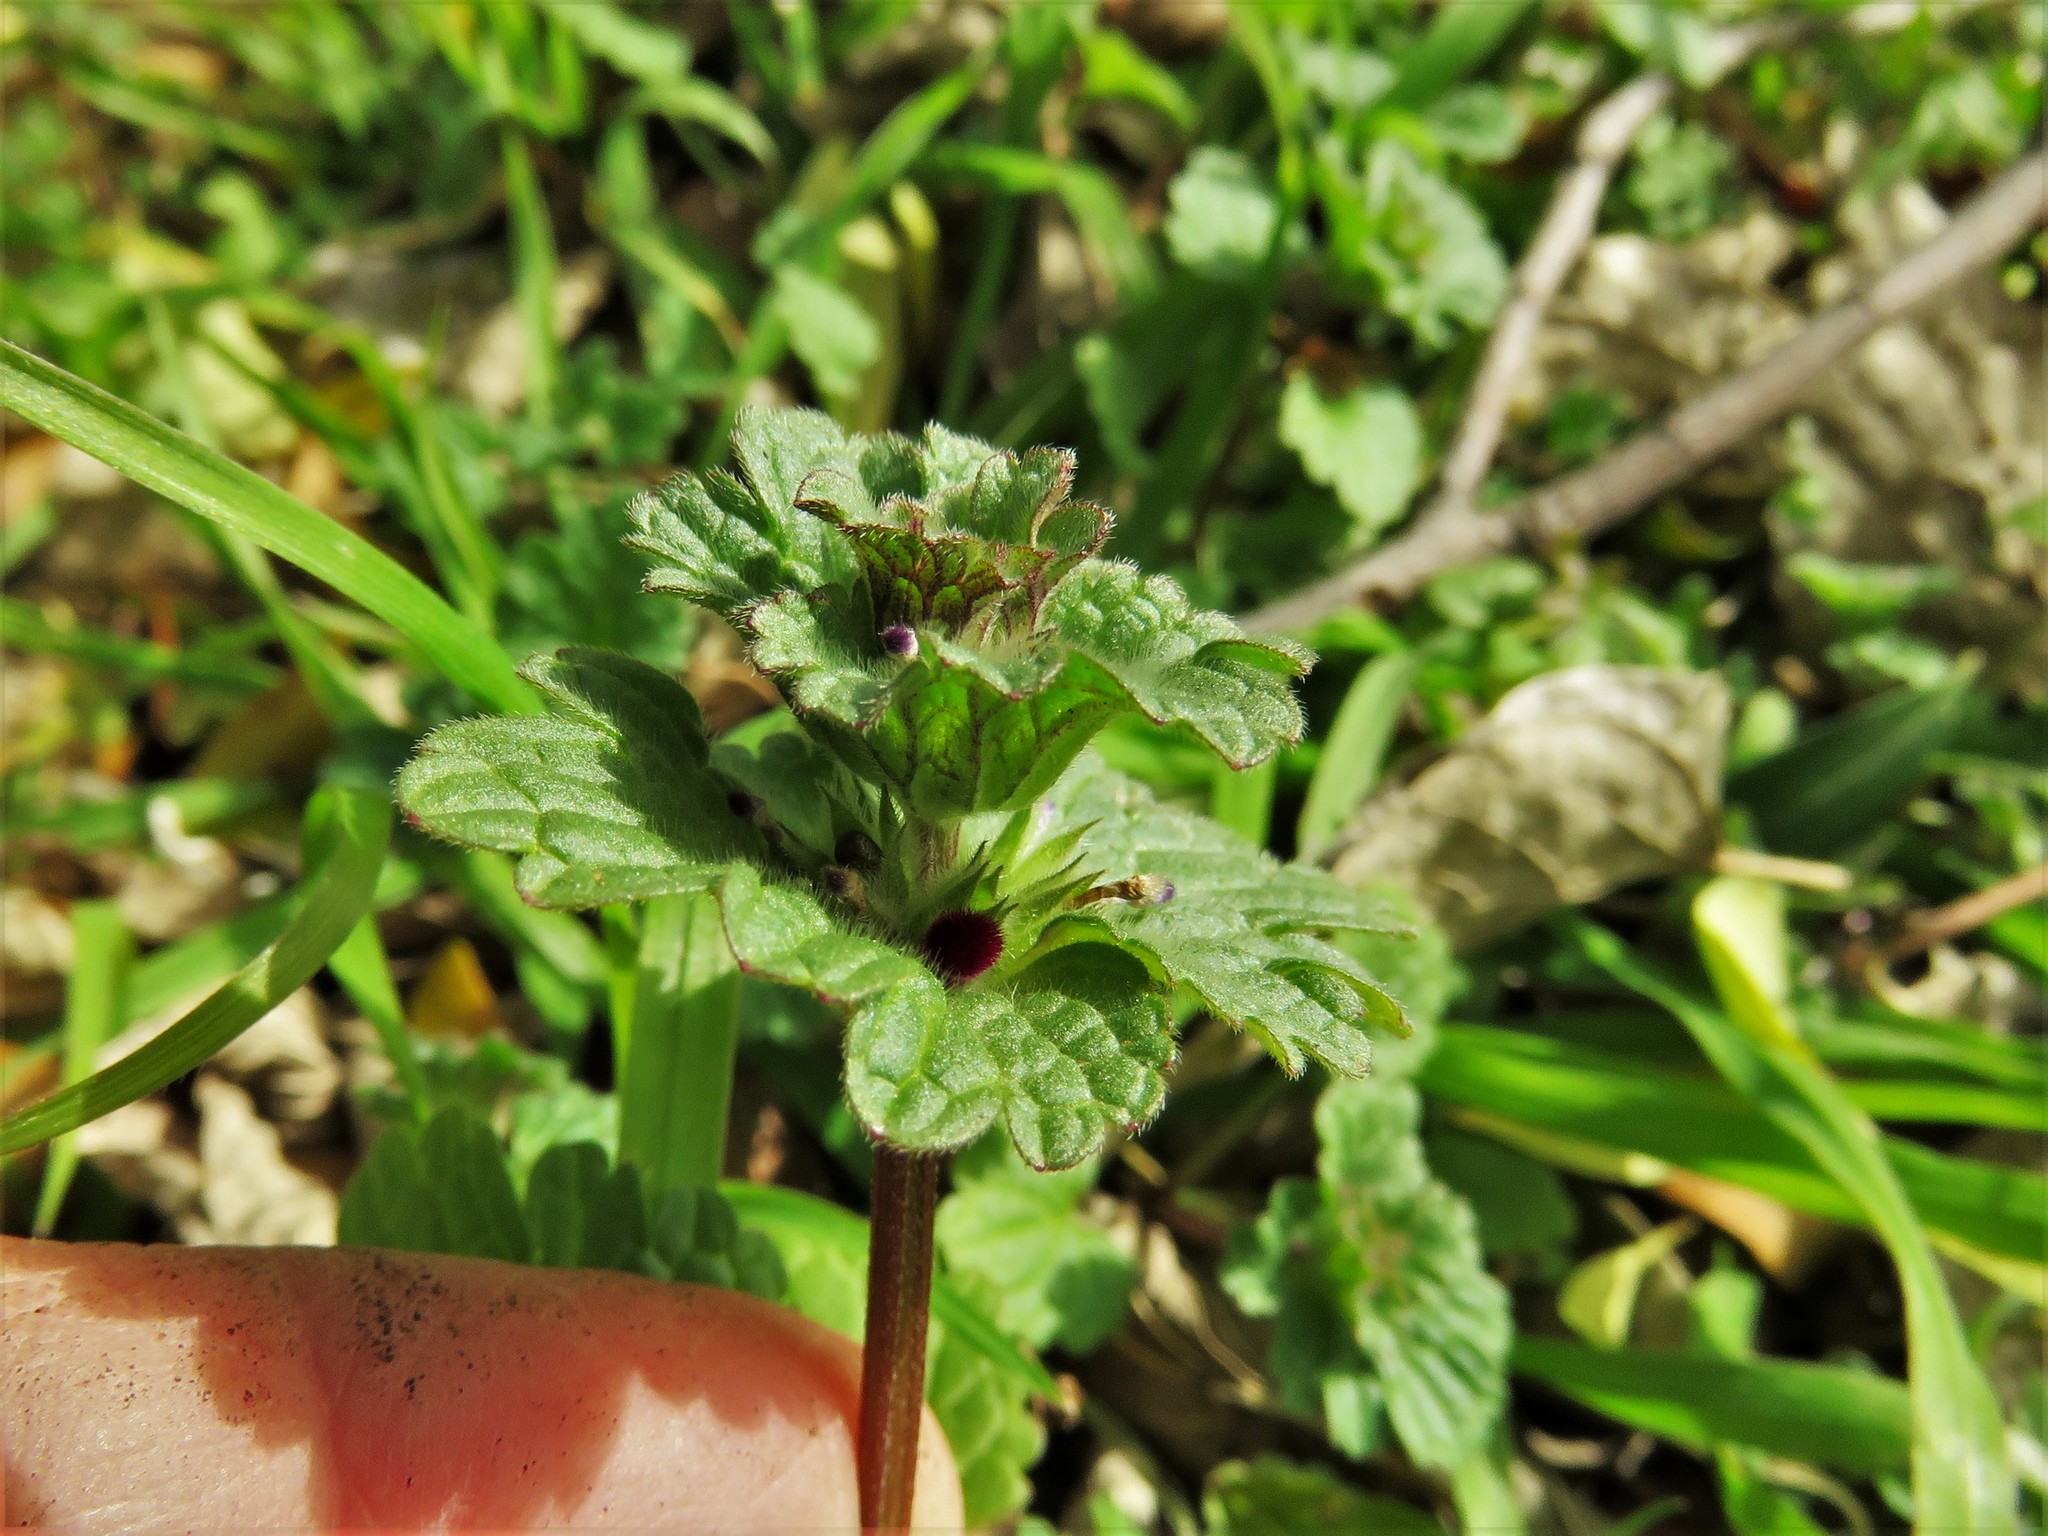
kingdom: Plantae
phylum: Tracheophyta
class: Magnoliopsida
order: Lamiales
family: Lamiaceae
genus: Lamium
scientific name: Lamium amplexicaule
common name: Henbit dead-nettle
